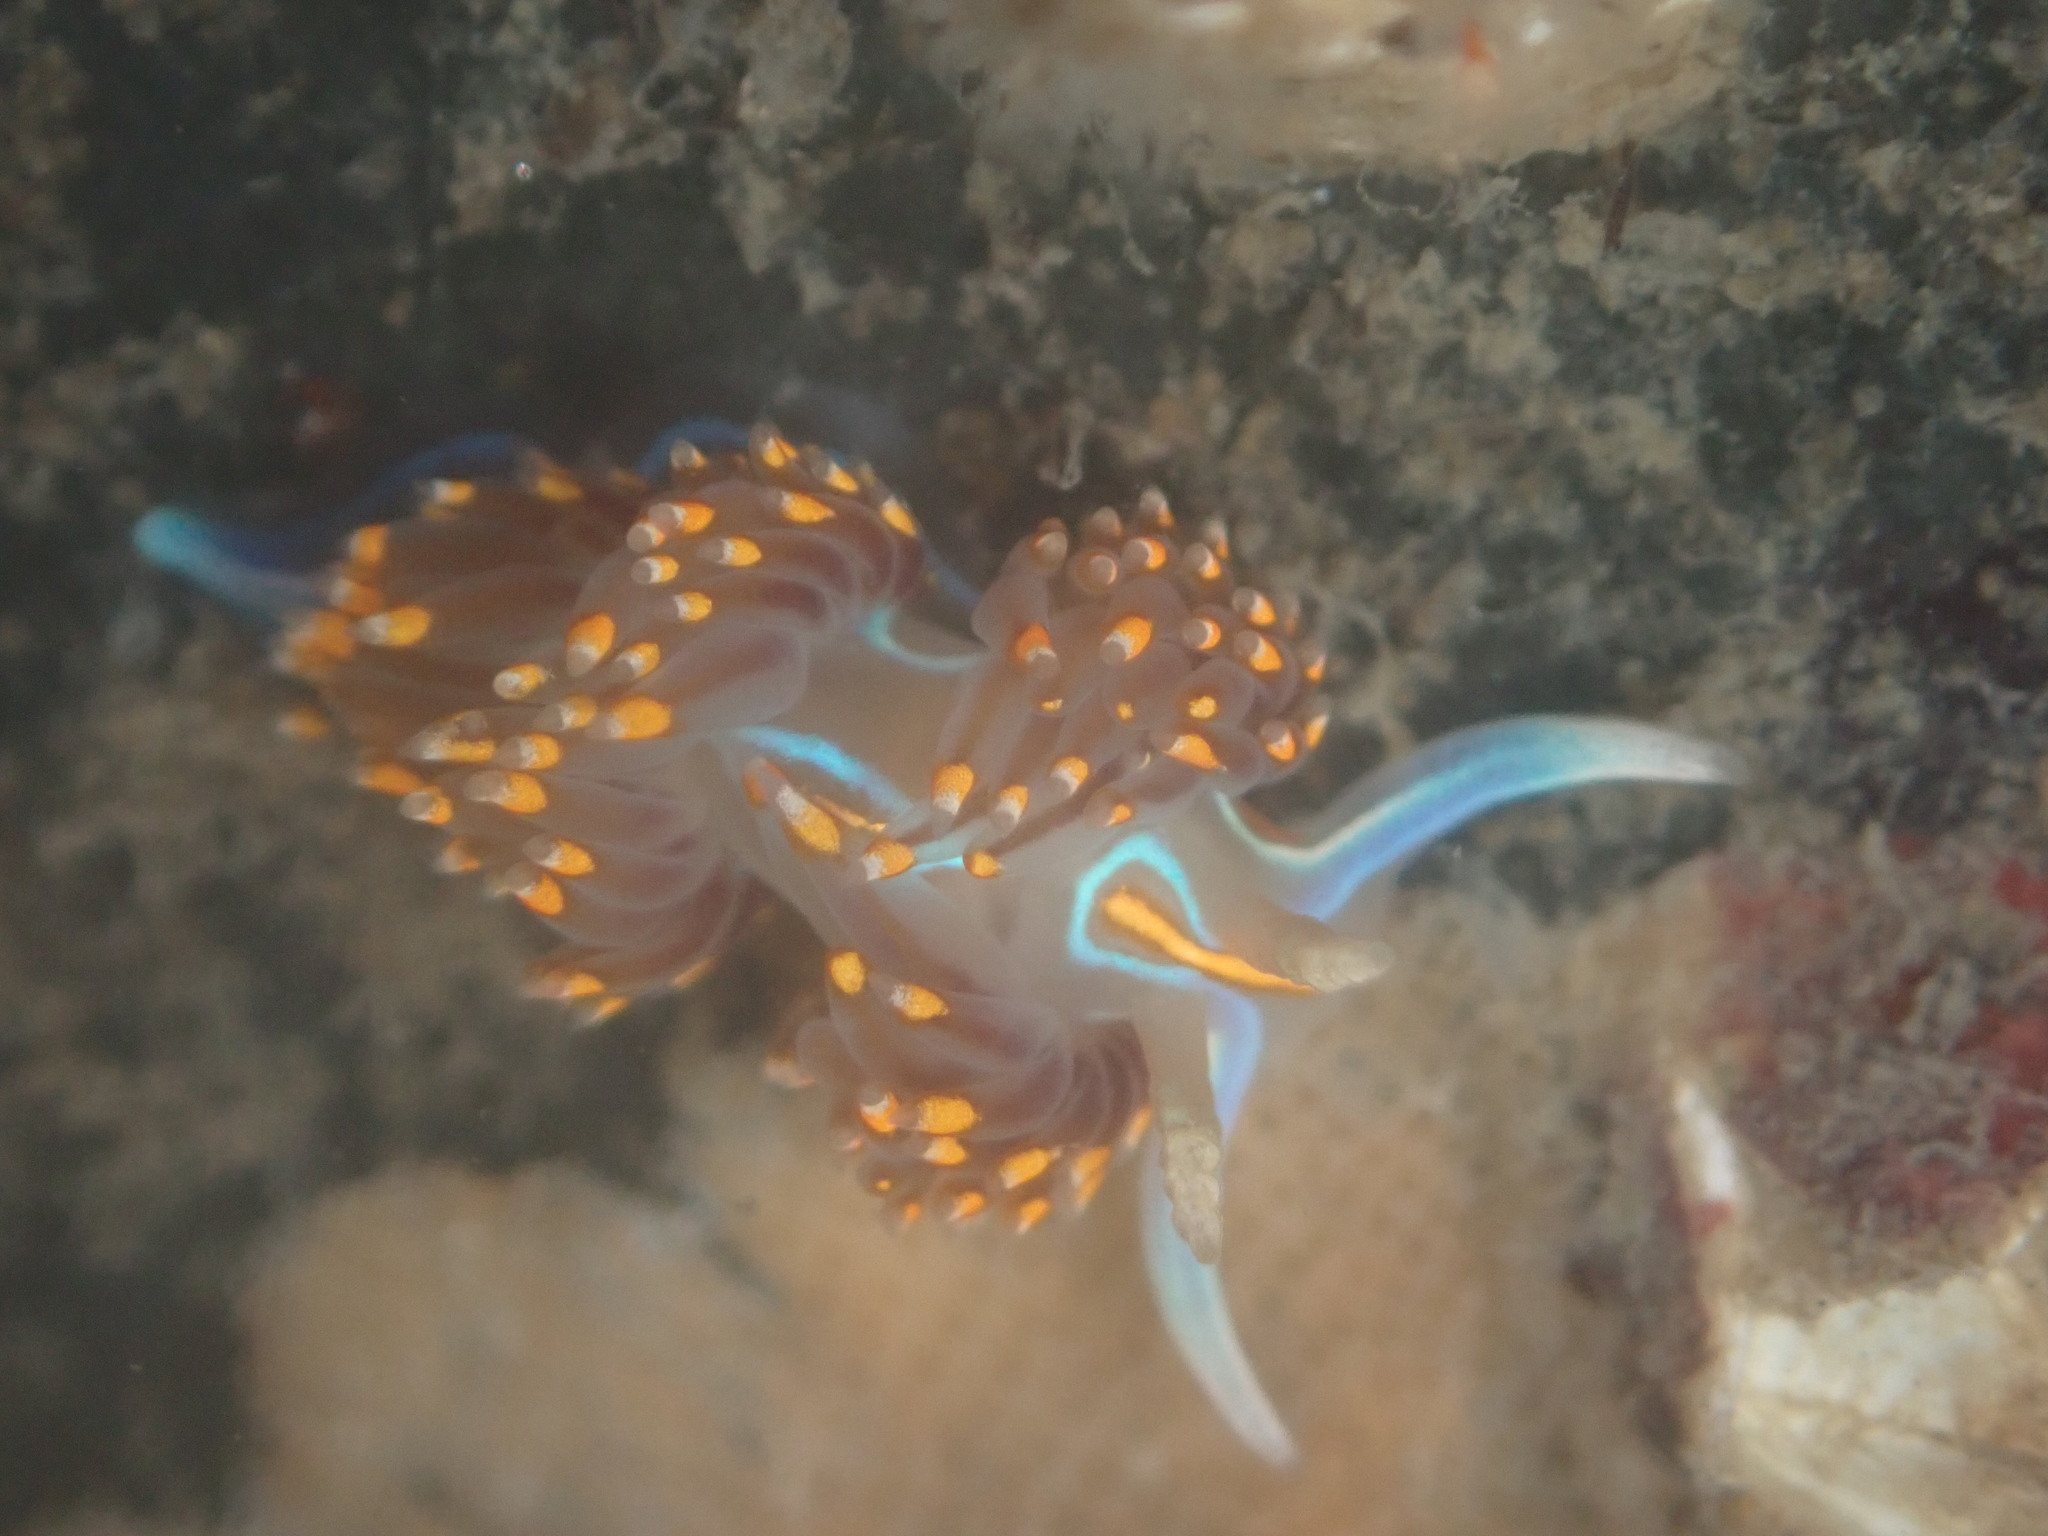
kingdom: Animalia
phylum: Mollusca
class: Gastropoda
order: Nudibranchia
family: Myrrhinidae
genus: Hermissenda
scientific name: Hermissenda opalescens
